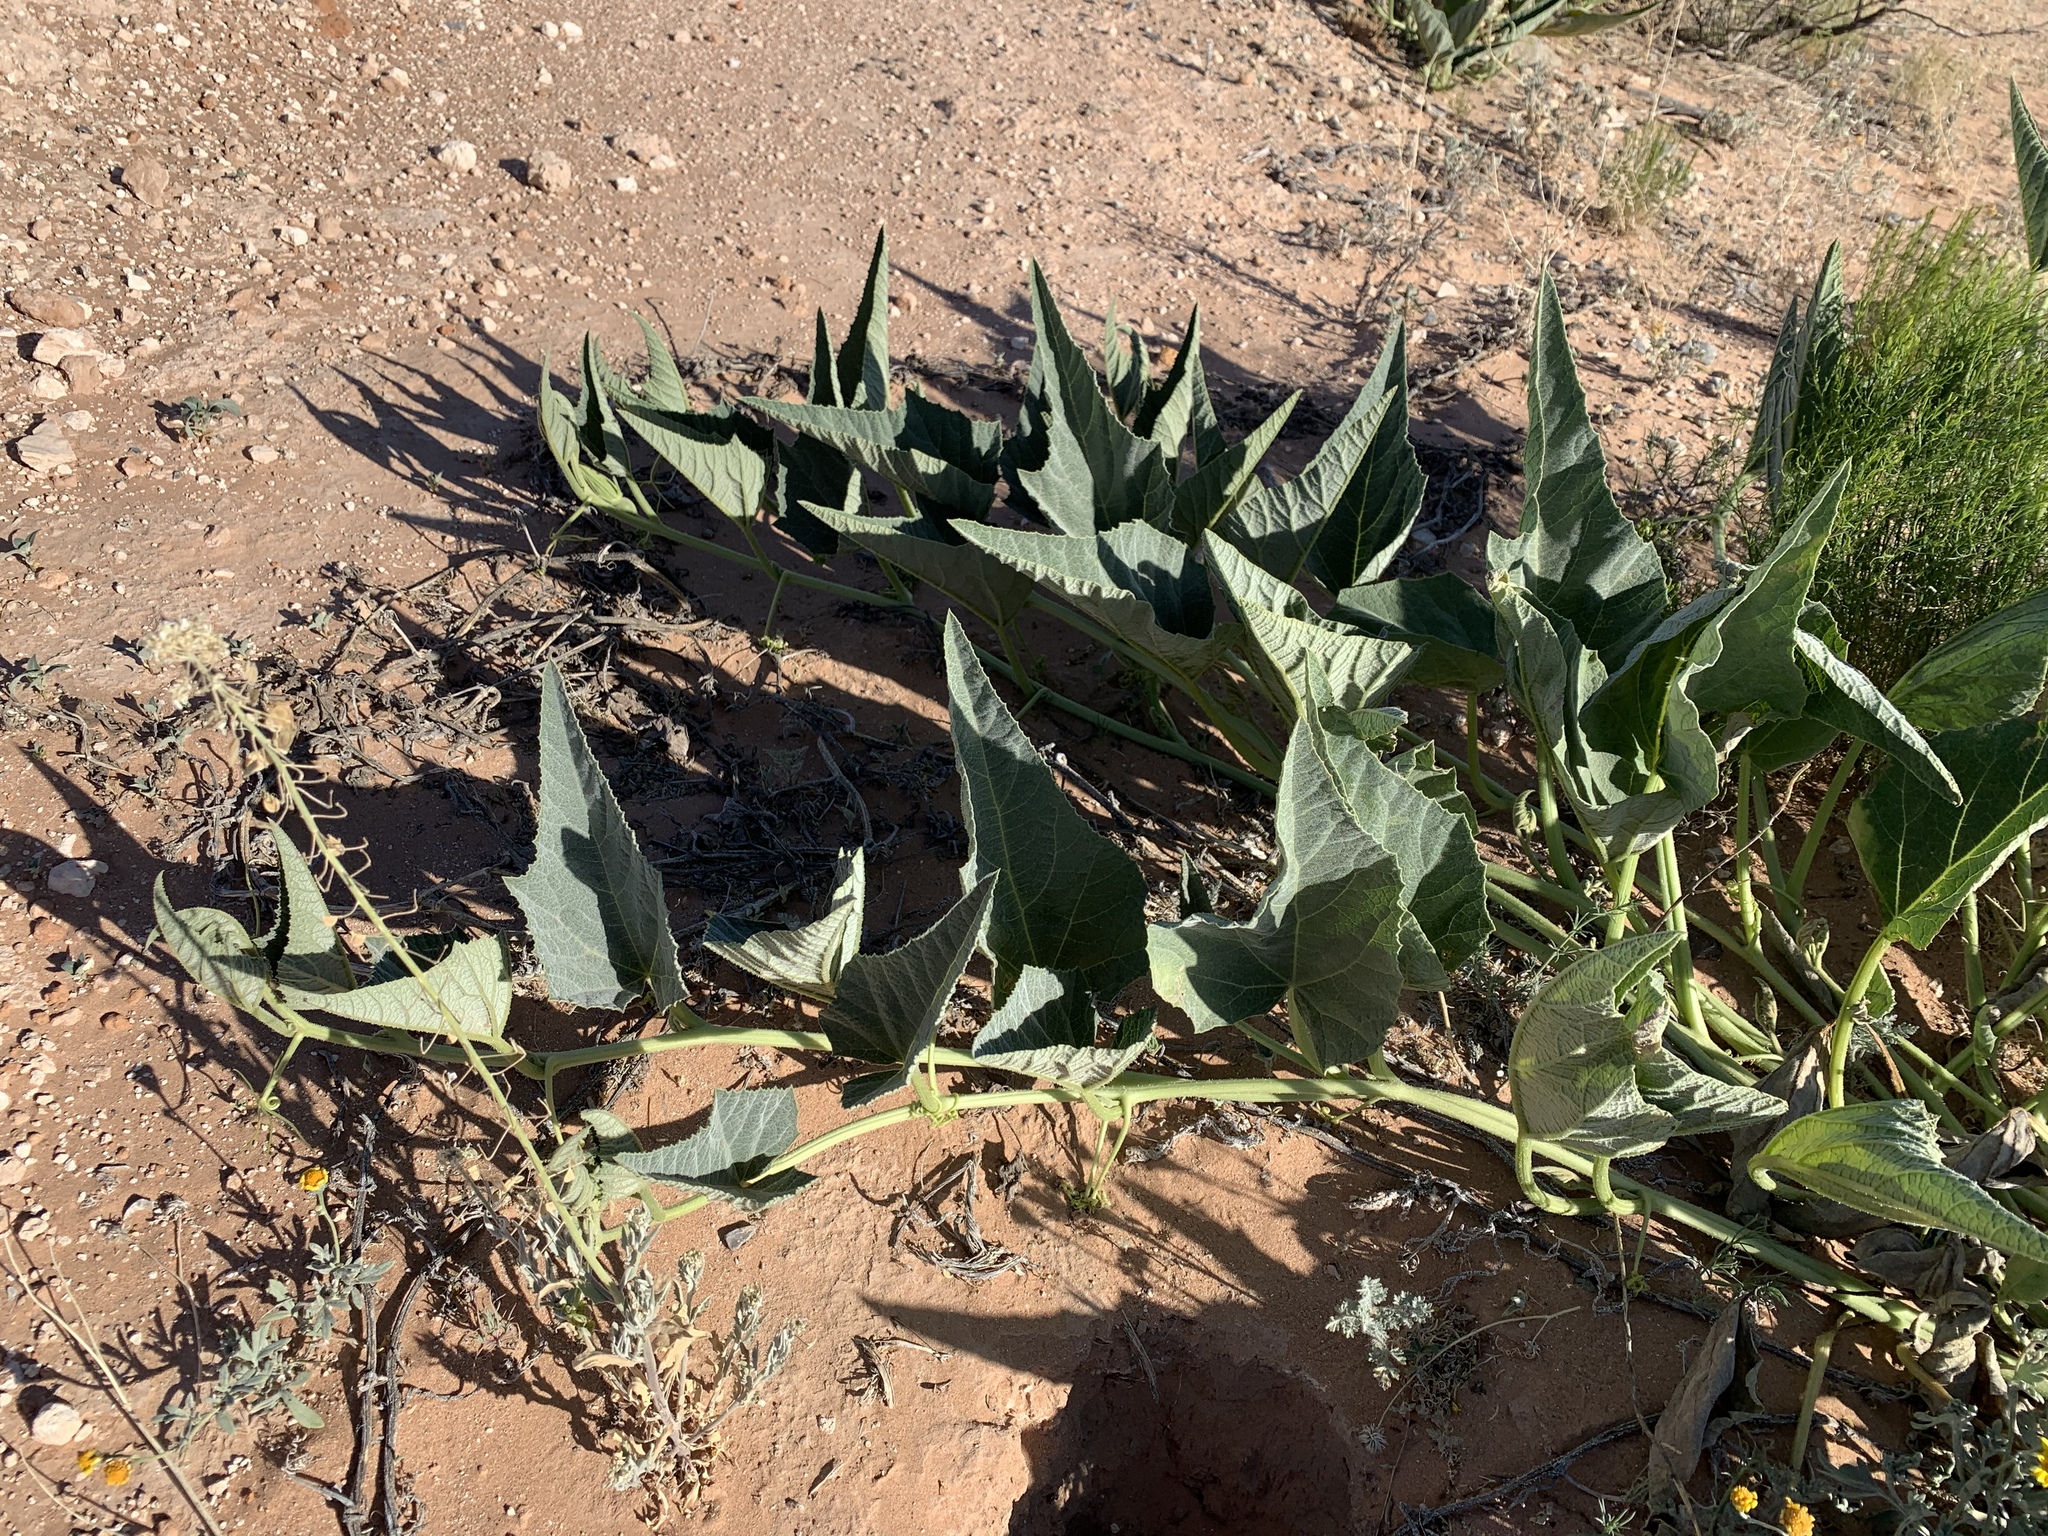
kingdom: Plantae
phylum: Tracheophyta
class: Magnoliopsida
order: Cucurbitales
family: Cucurbitaceae
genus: Cucurbita
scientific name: Cucurbita foetidissima
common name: Buffalo gourd
